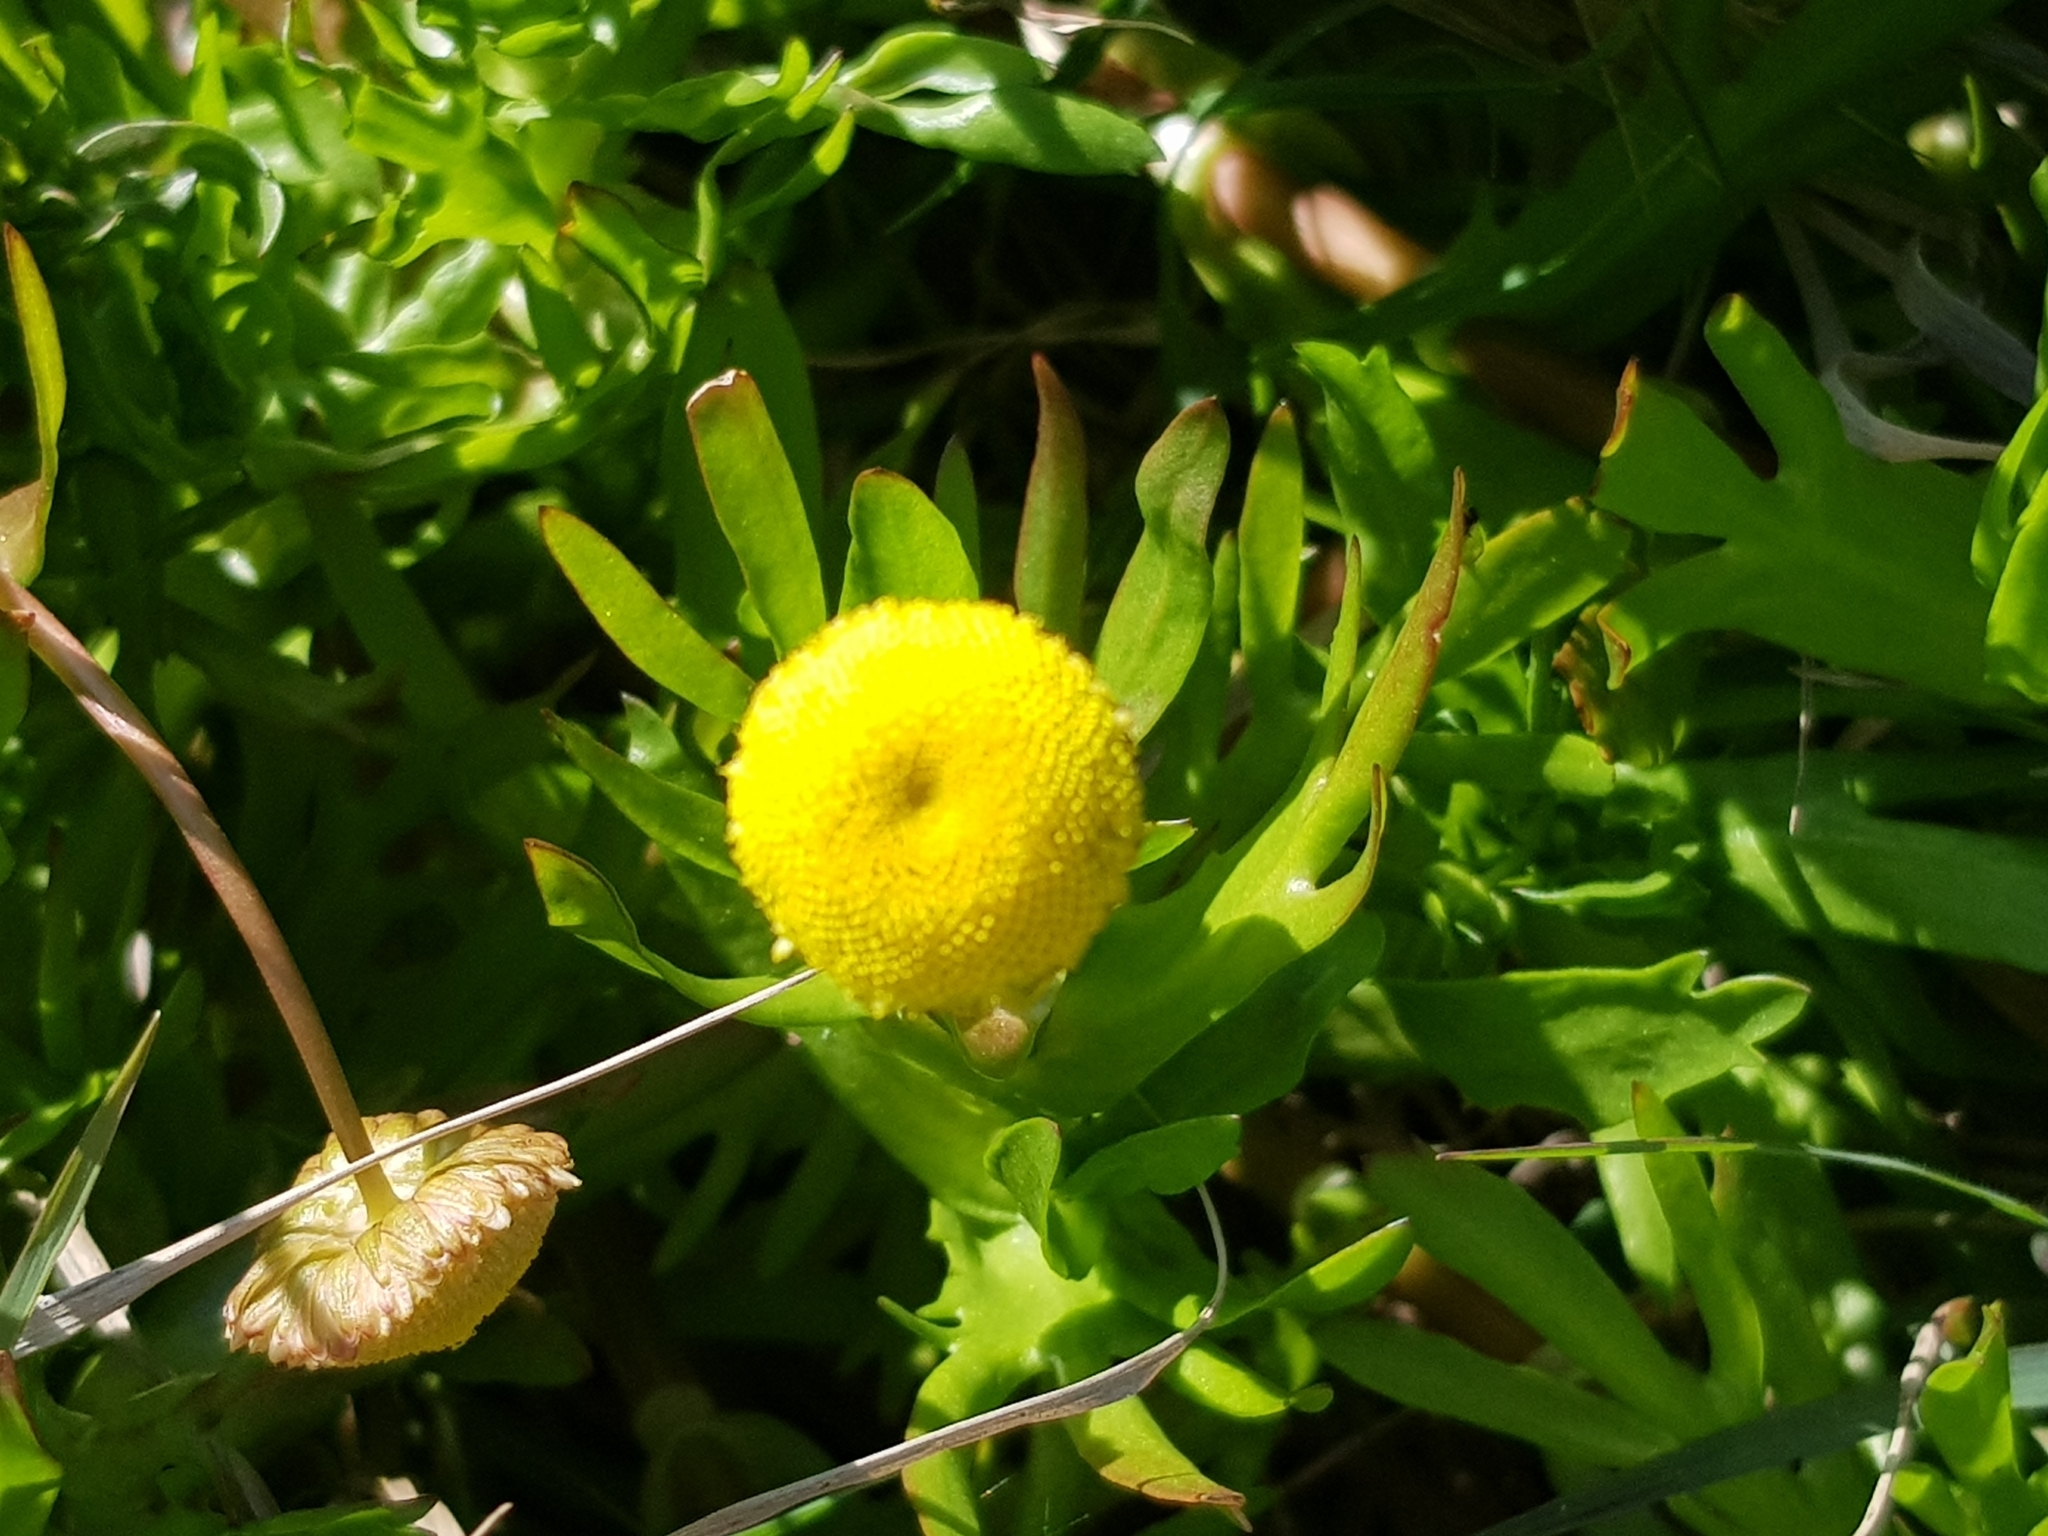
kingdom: Plantae
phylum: Tracheophyta
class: Magnoliopsida
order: Asterales
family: Asteraceae
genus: Cotula
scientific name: Cotula coronopifolia
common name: Buttonweed
